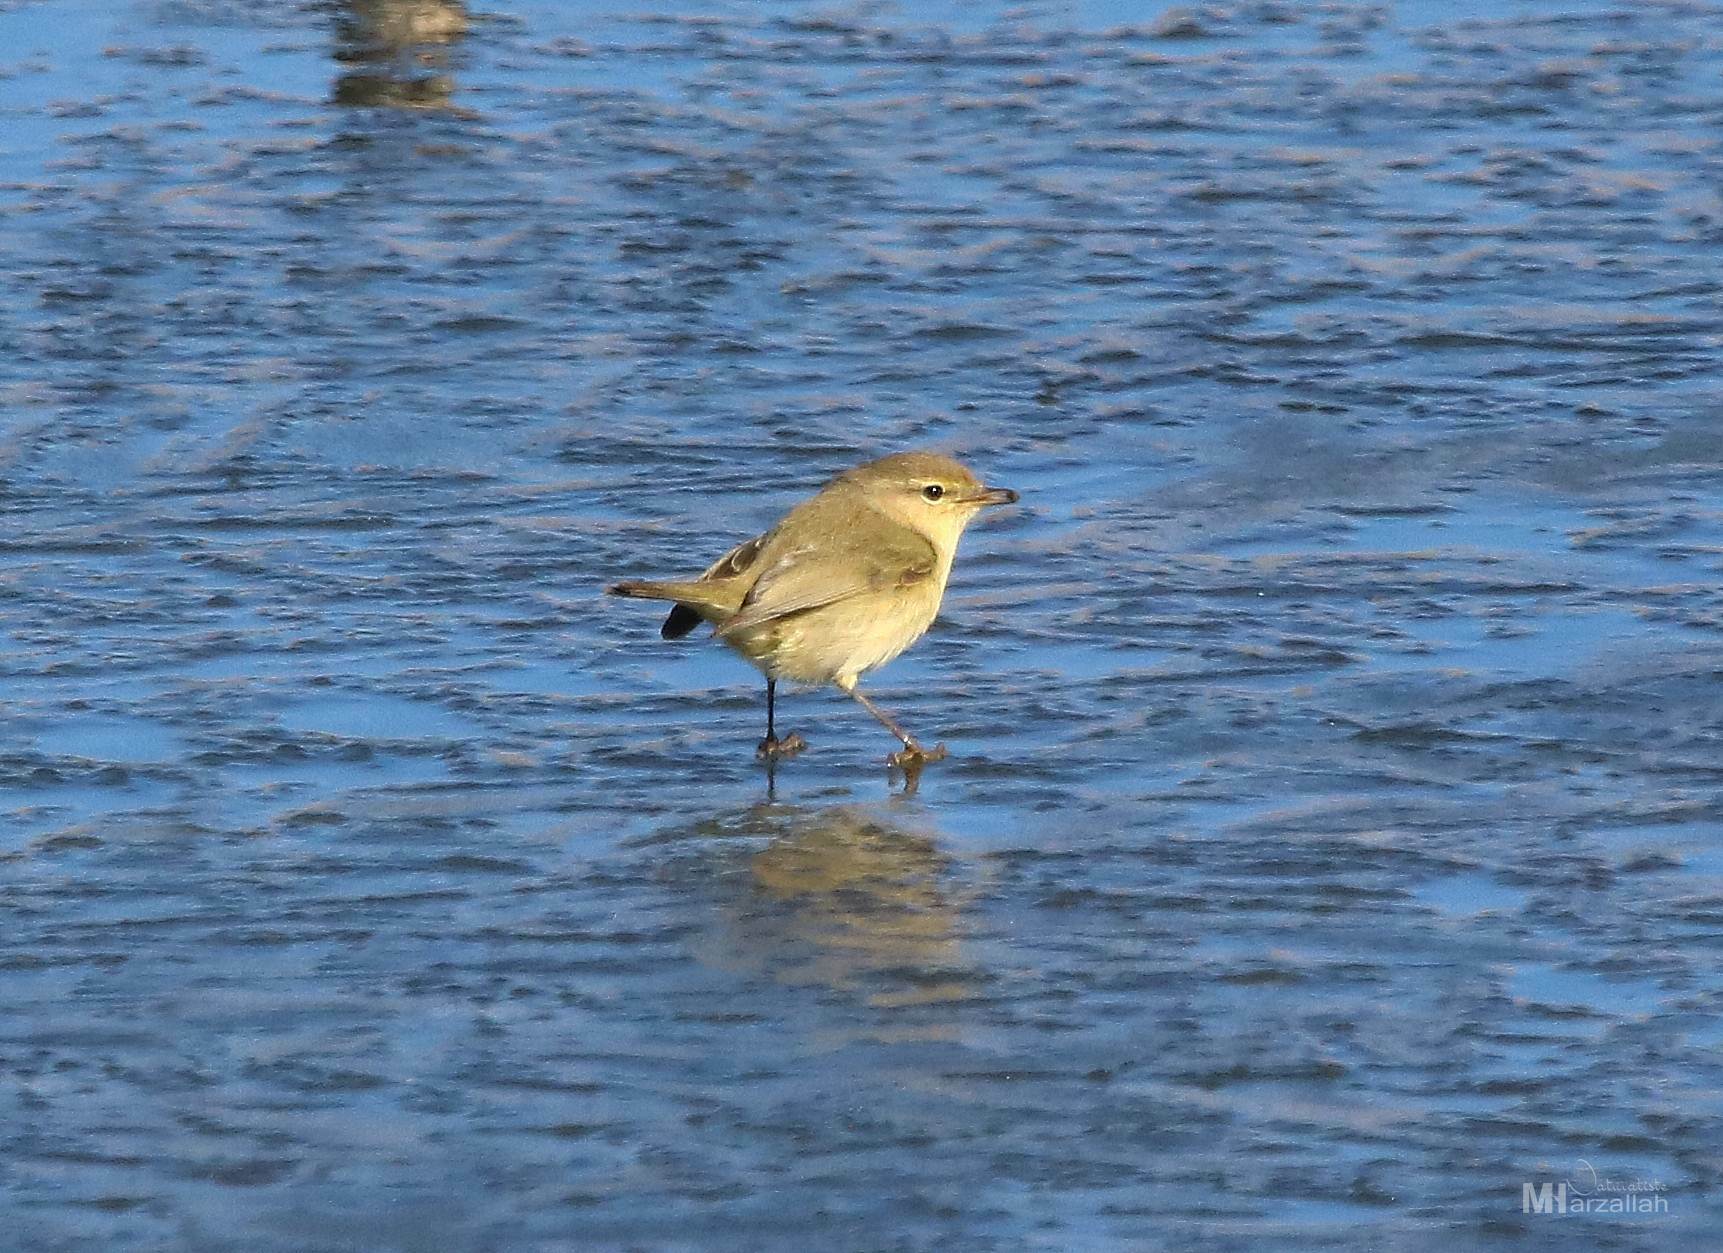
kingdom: Animalia
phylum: Chordata
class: Aves
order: Passeriformes
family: Phylloscopidae
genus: Phylloscopus
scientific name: Phylloscopus collybita
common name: Common chiffchaff
